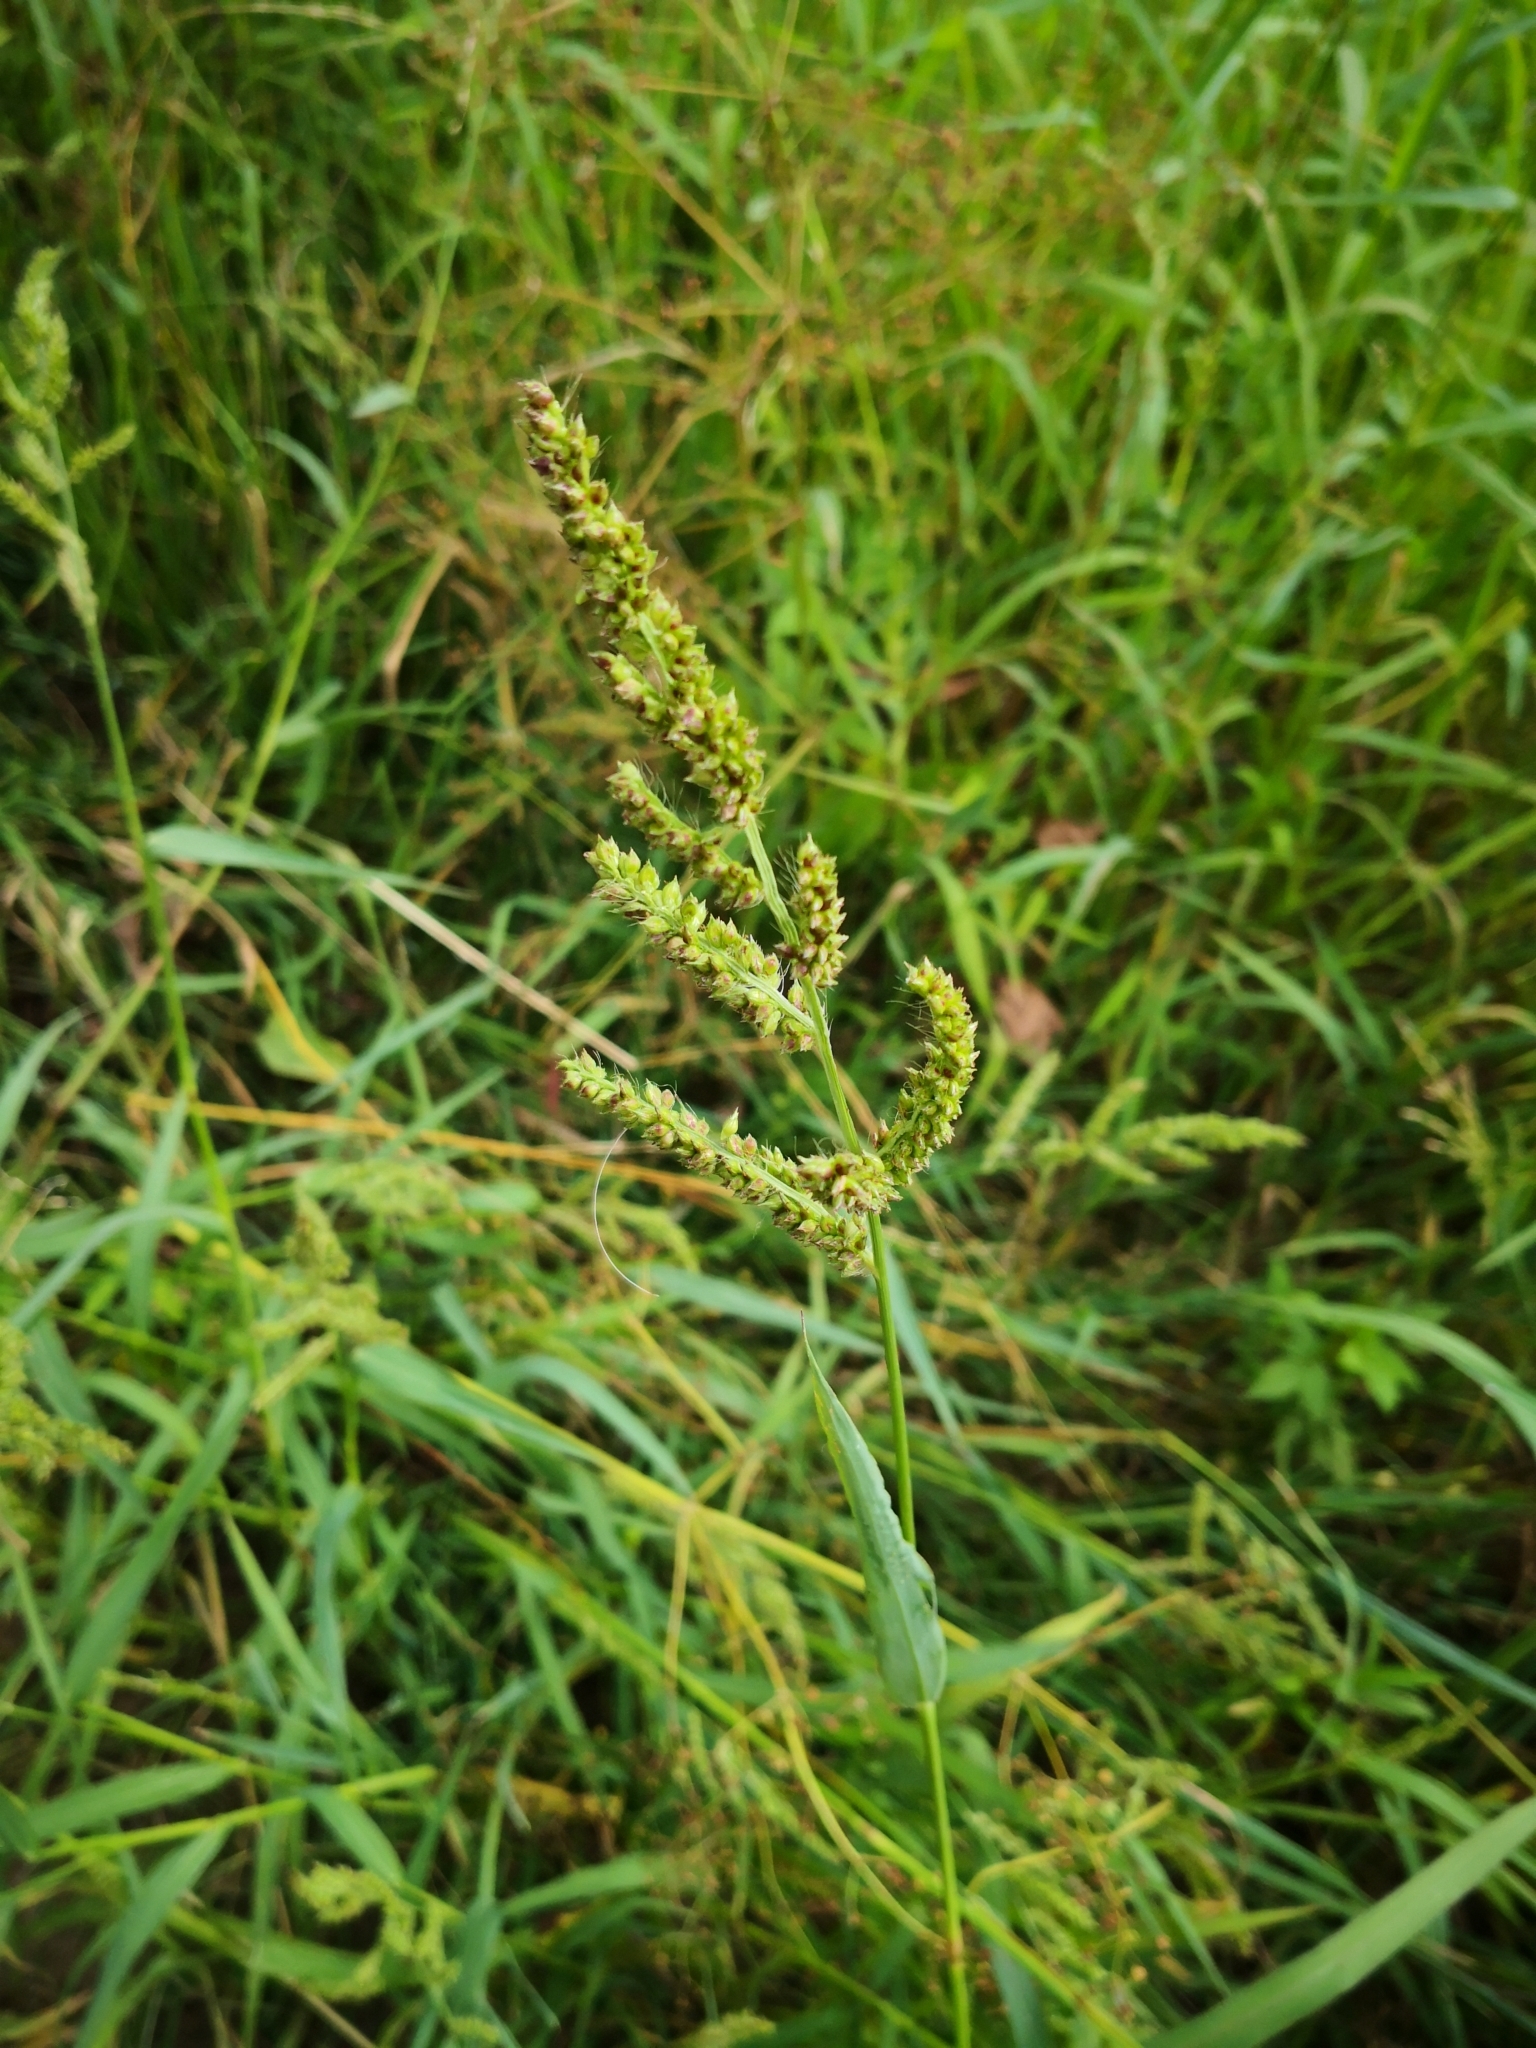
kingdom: Plantae
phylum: Tracheophyta
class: Liliopsida
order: Poales
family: Poaceae
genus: Echinochloa
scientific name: Echinochloa crus-galli
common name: Cockspur
